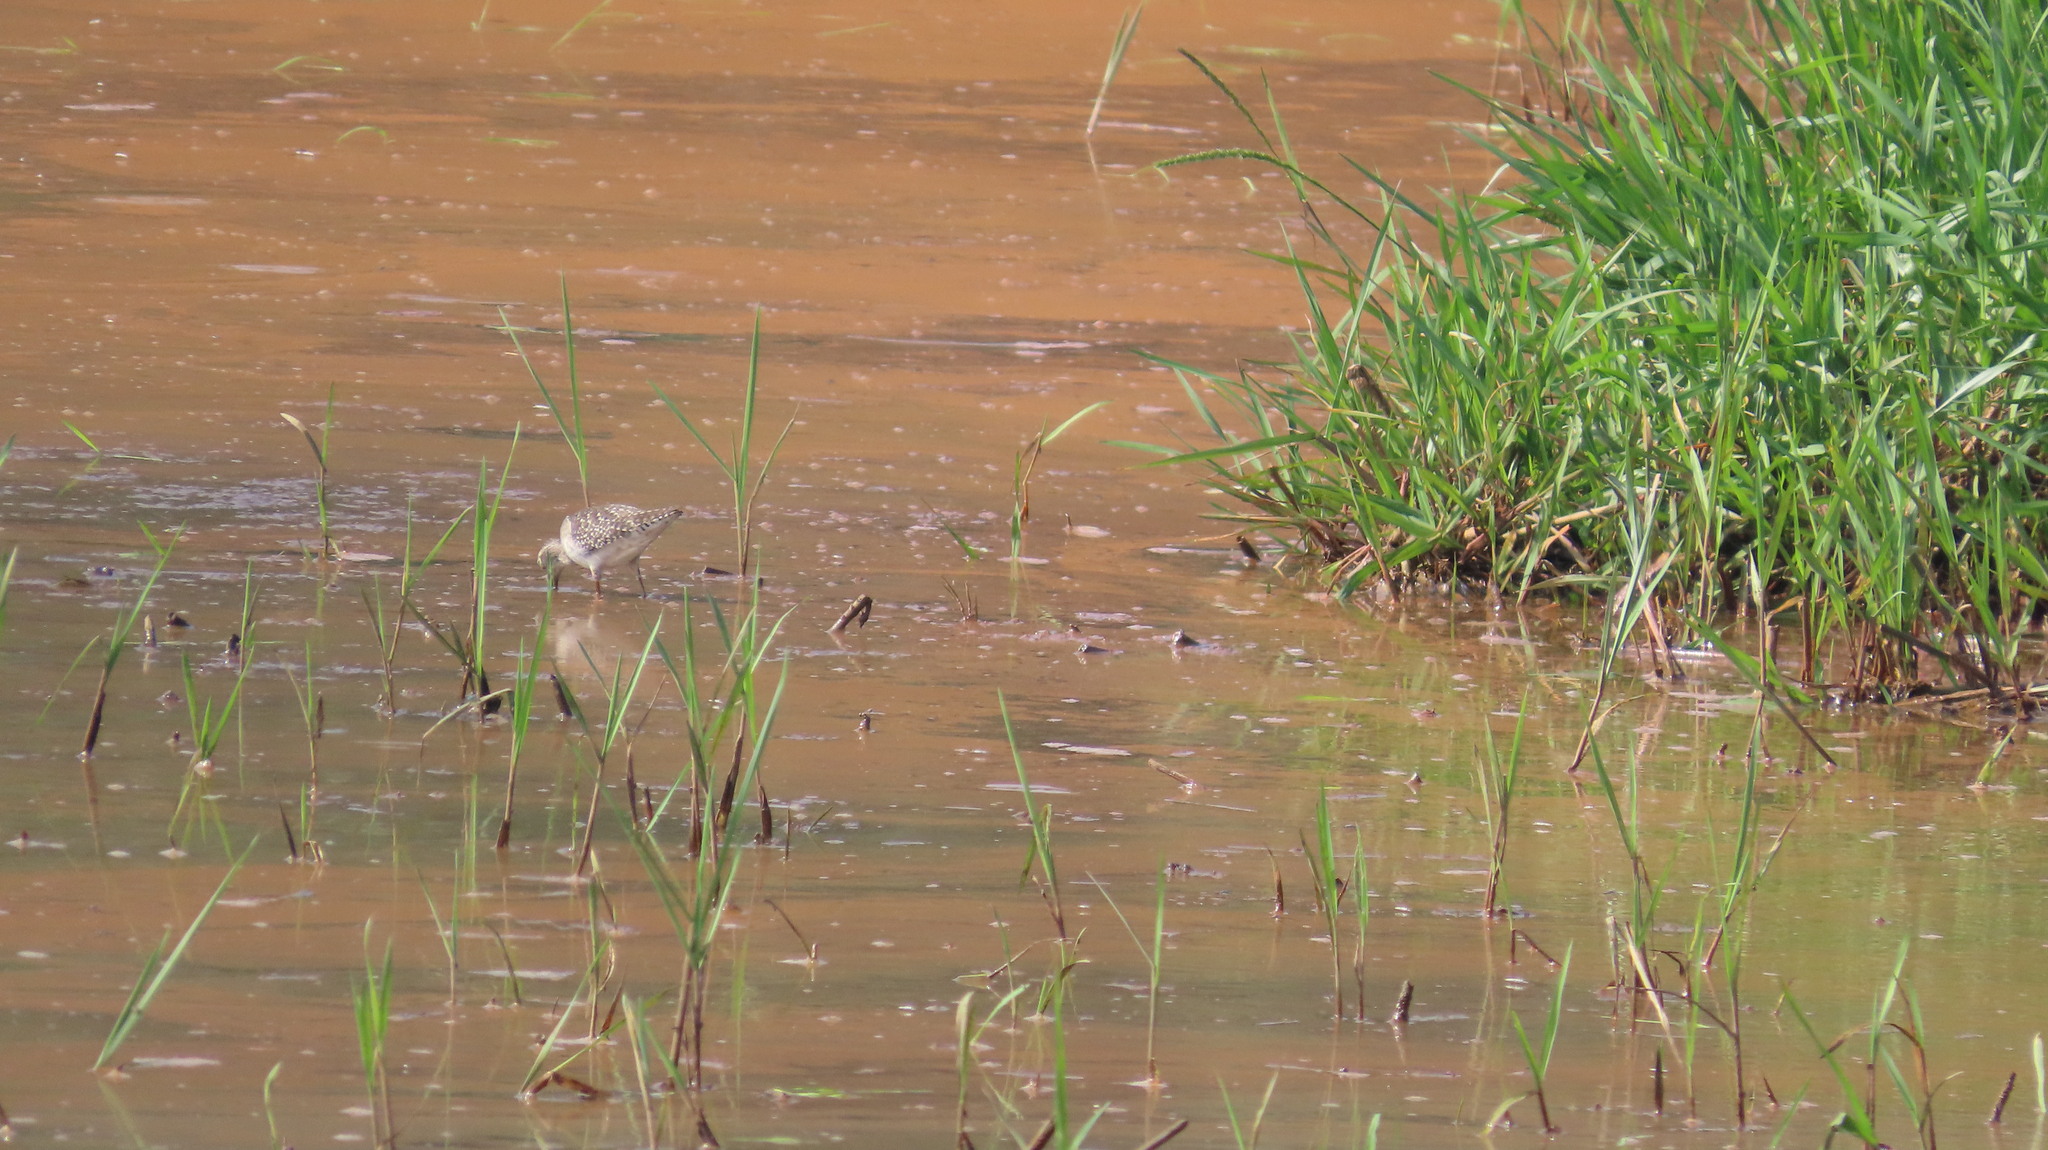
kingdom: Animalia
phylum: Chordata
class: Aves
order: Charadriiformes
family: Scolopacidae
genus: Tringa
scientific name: Tringa glareola
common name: Wood sandpiper
